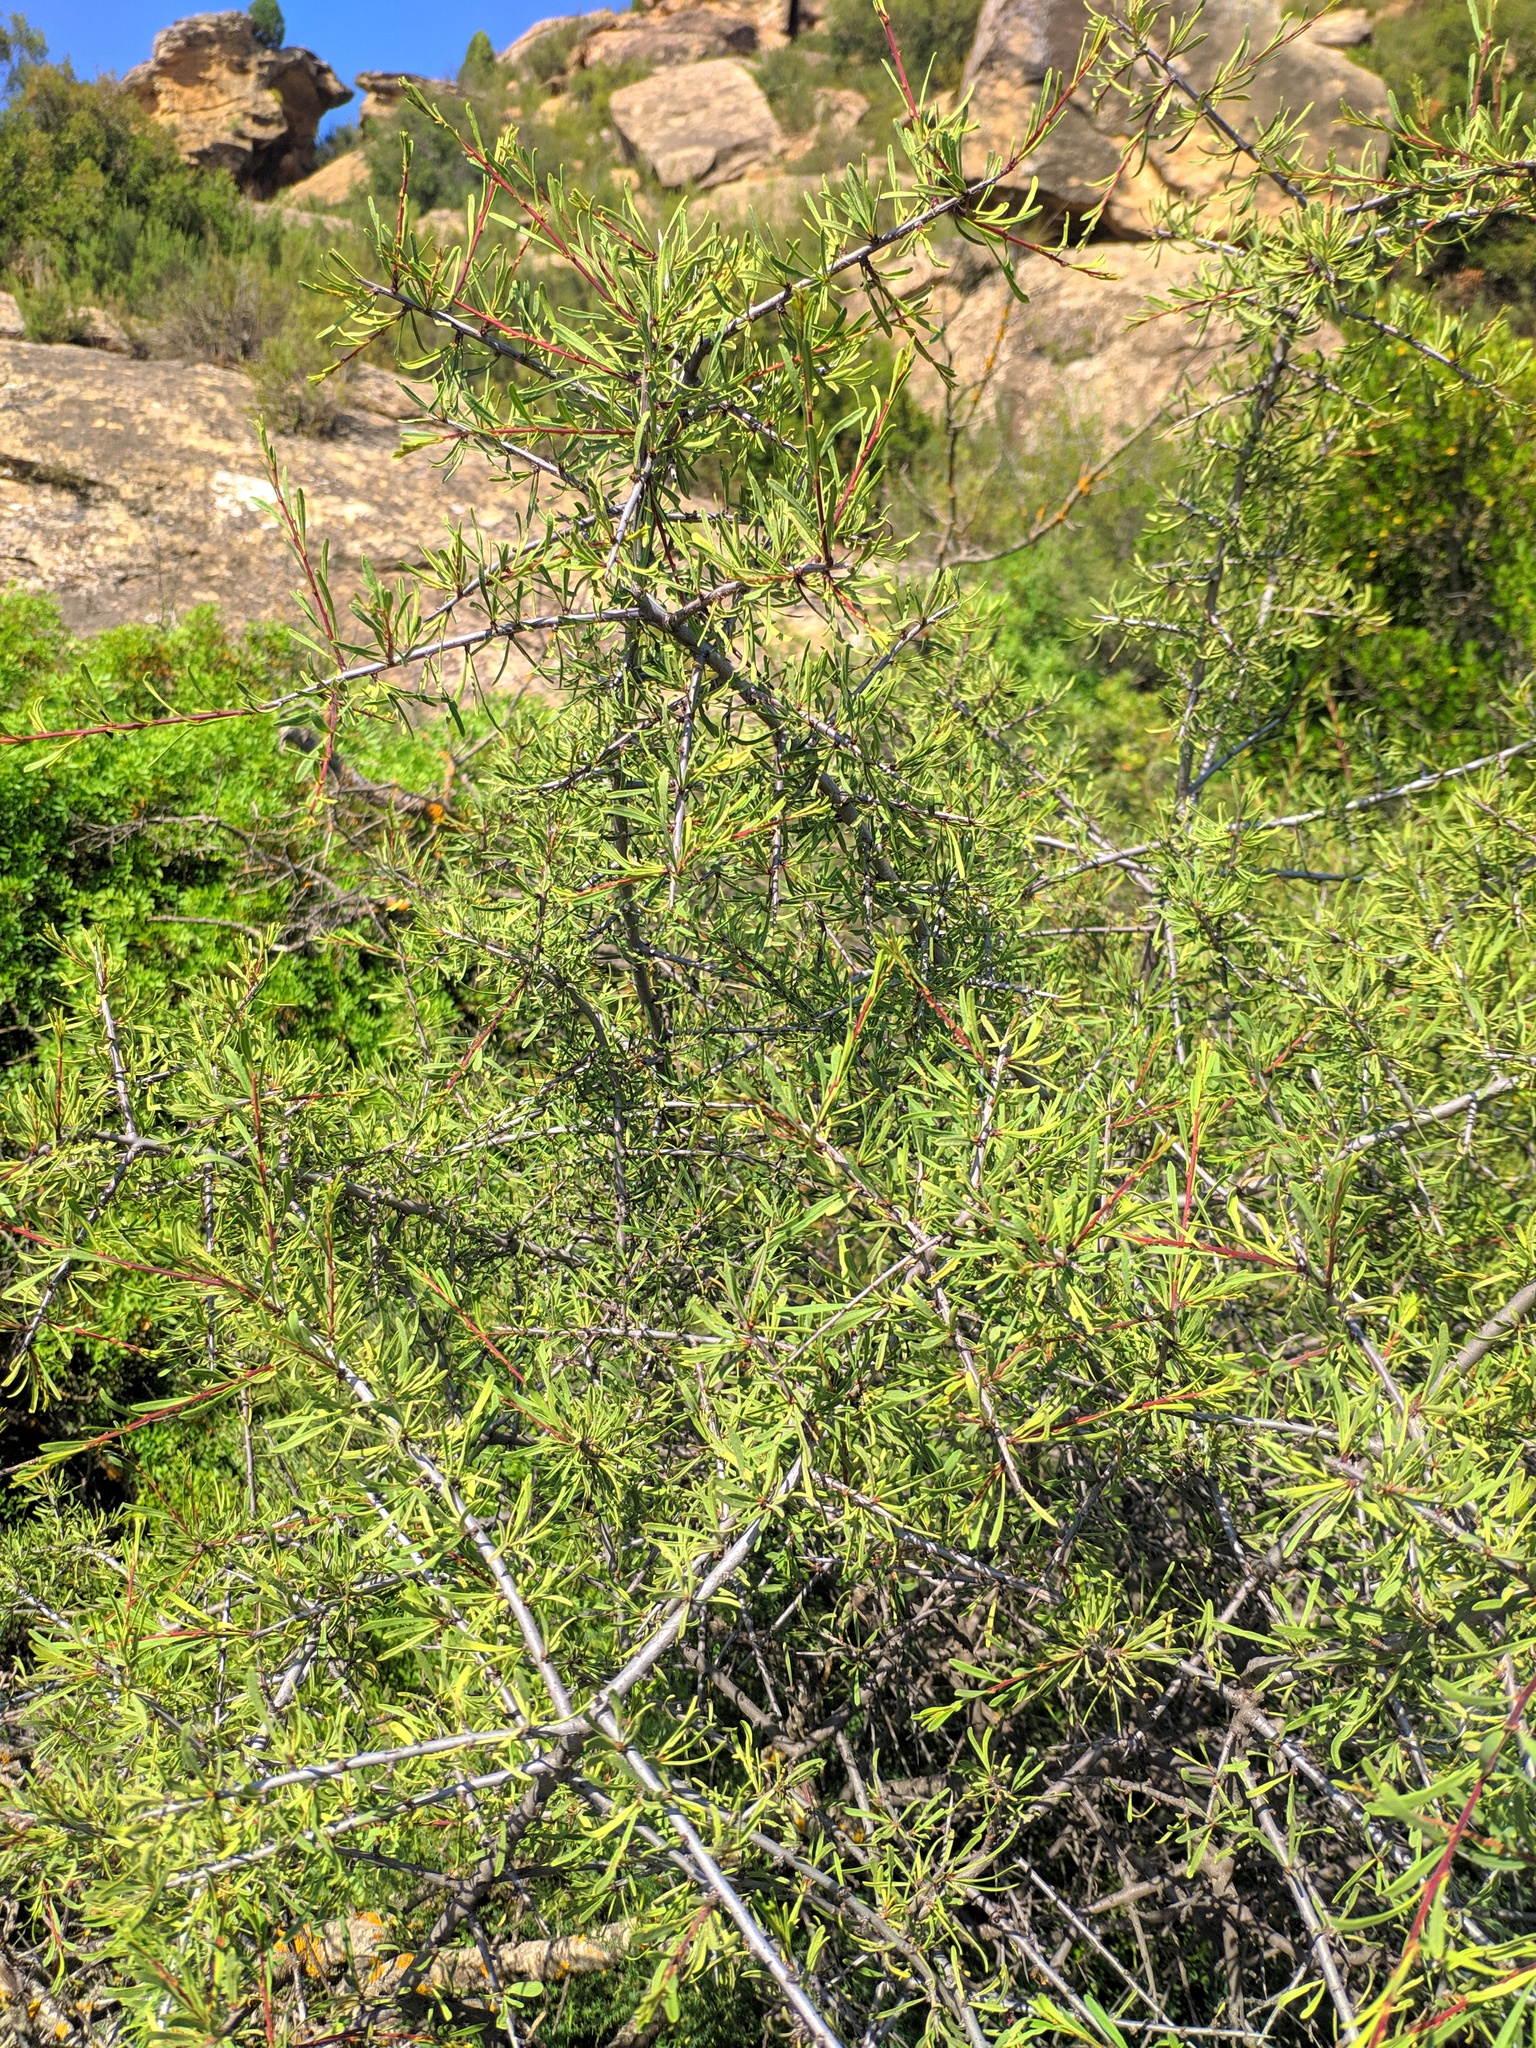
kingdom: Plantae
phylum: Tracheophyta
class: Magnoliopsida
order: Rosales
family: Rhamnaceae
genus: Rhamnus
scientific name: Rhamnus lycioides
